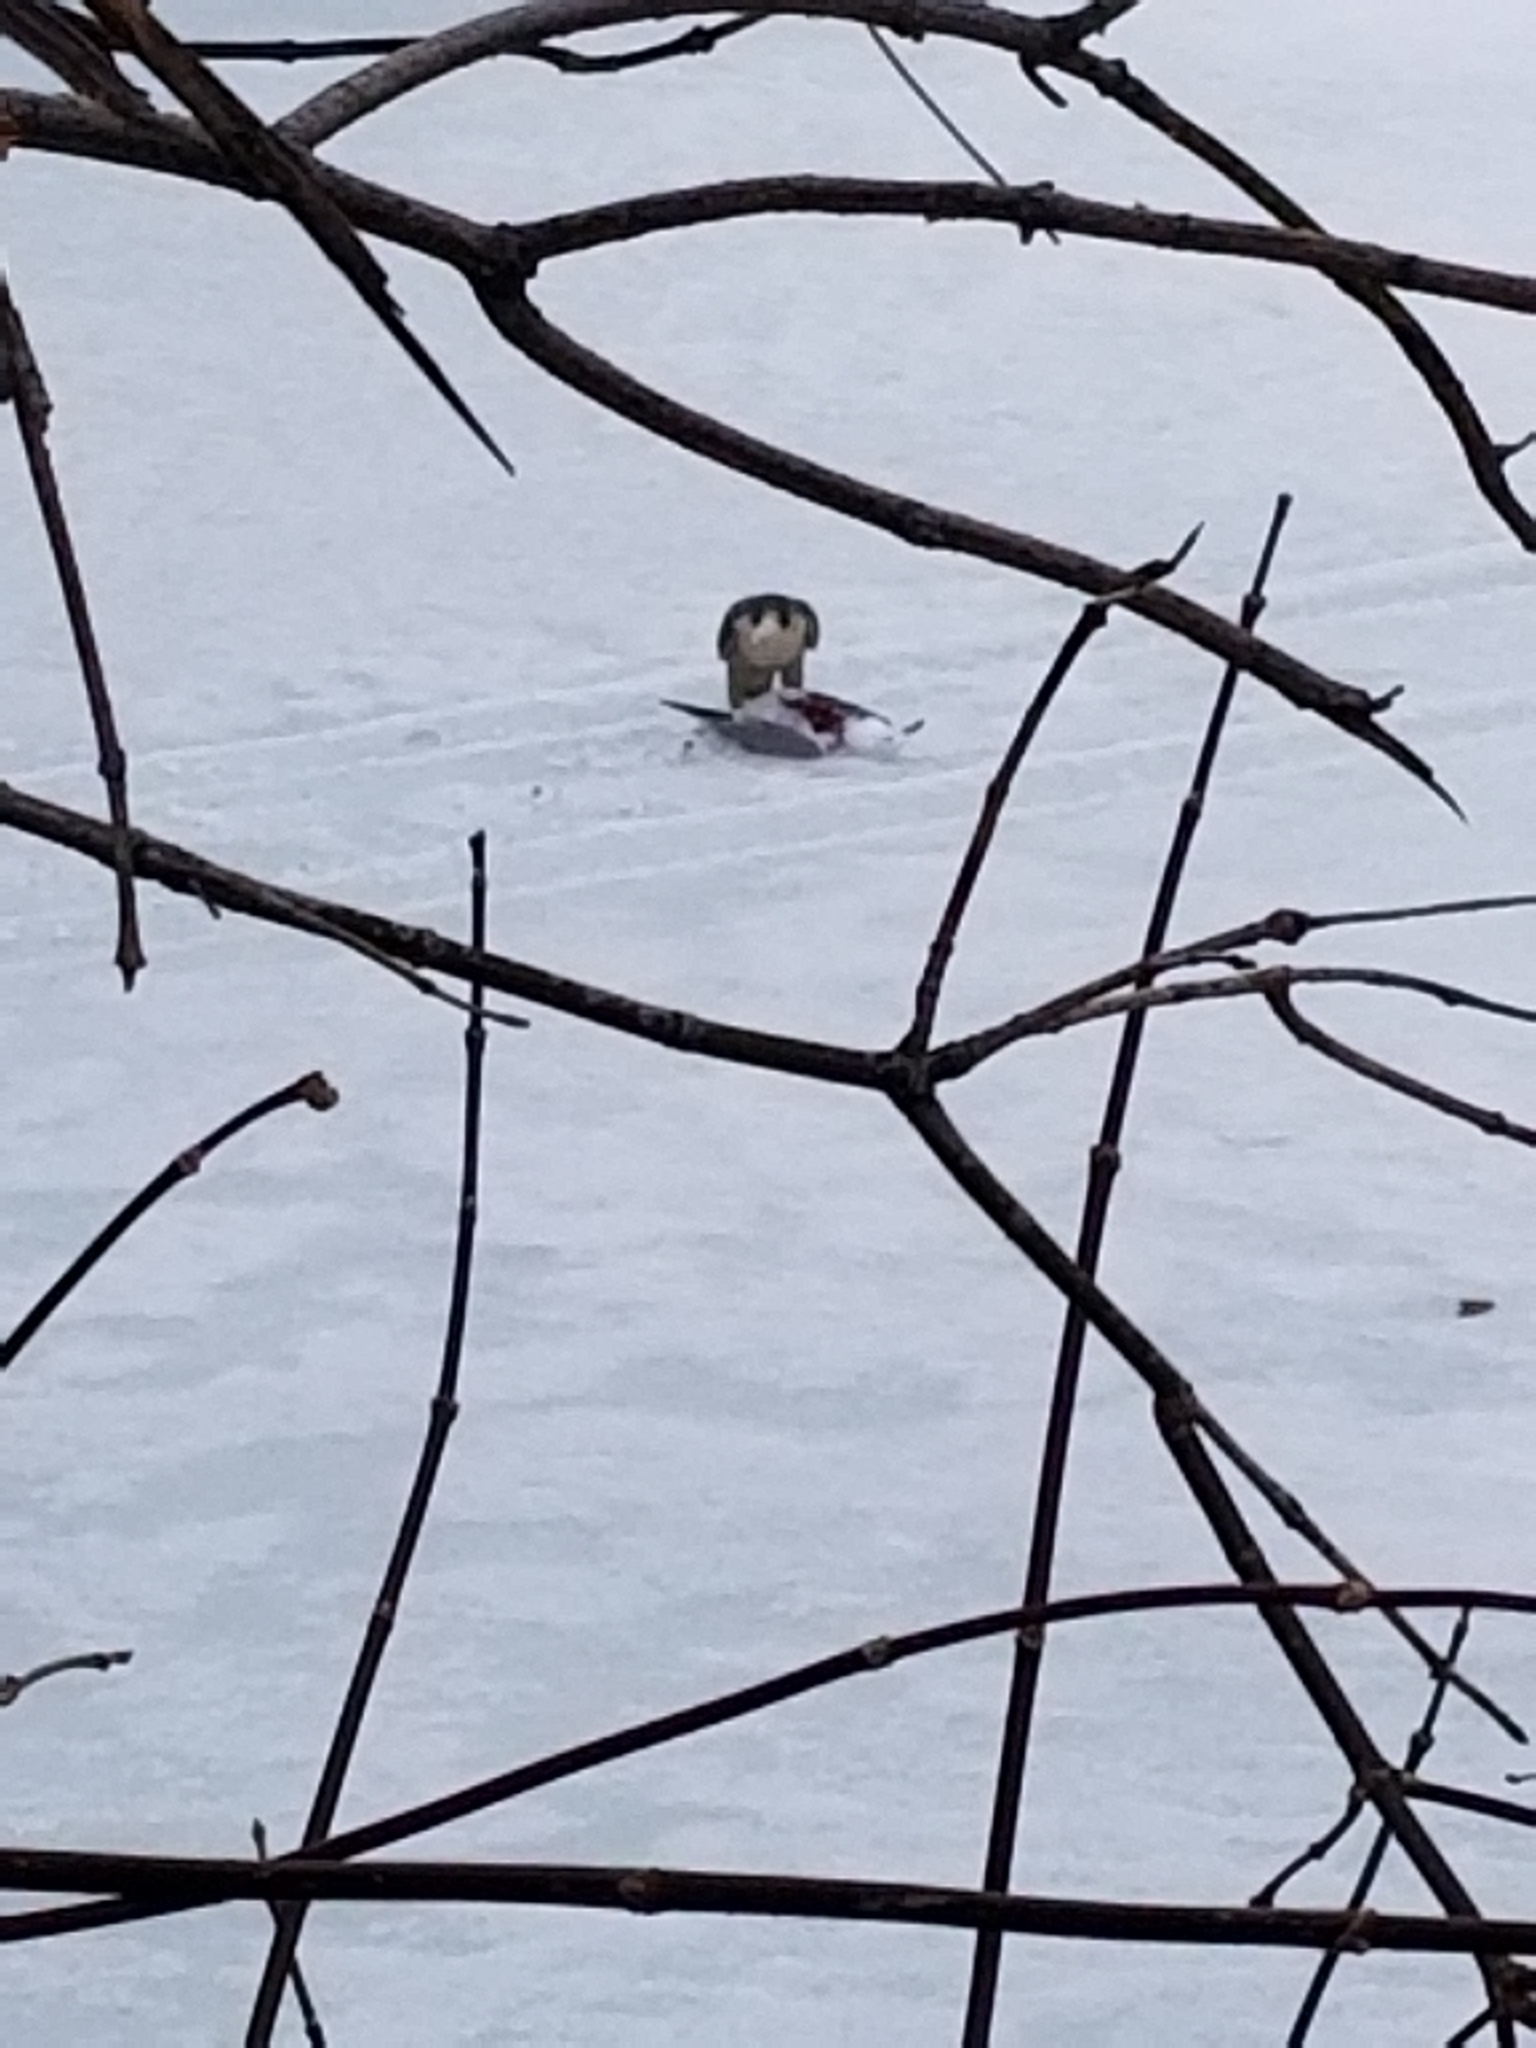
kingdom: Animalia
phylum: Chordata
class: Aves
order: Falconiformes
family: Falconidae
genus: Falco
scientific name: Falco peregrinus
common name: Peregrine falcon
